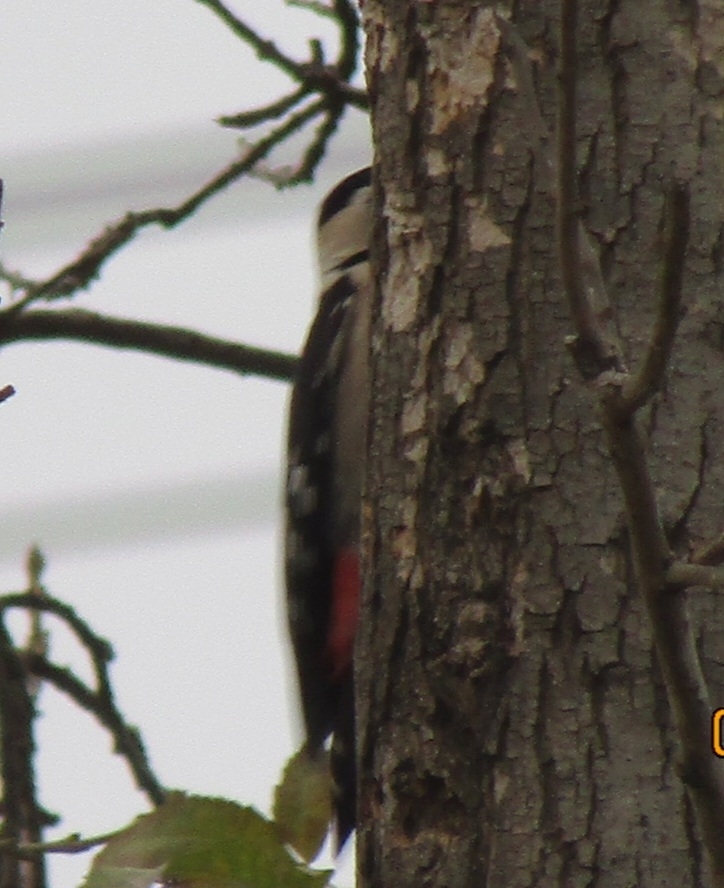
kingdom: Animalia
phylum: Chordata
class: Aves
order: Piciformes
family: Picidae
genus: Dendrocopos
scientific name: Dendrocopos syriacus
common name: Syrian woodpecker
